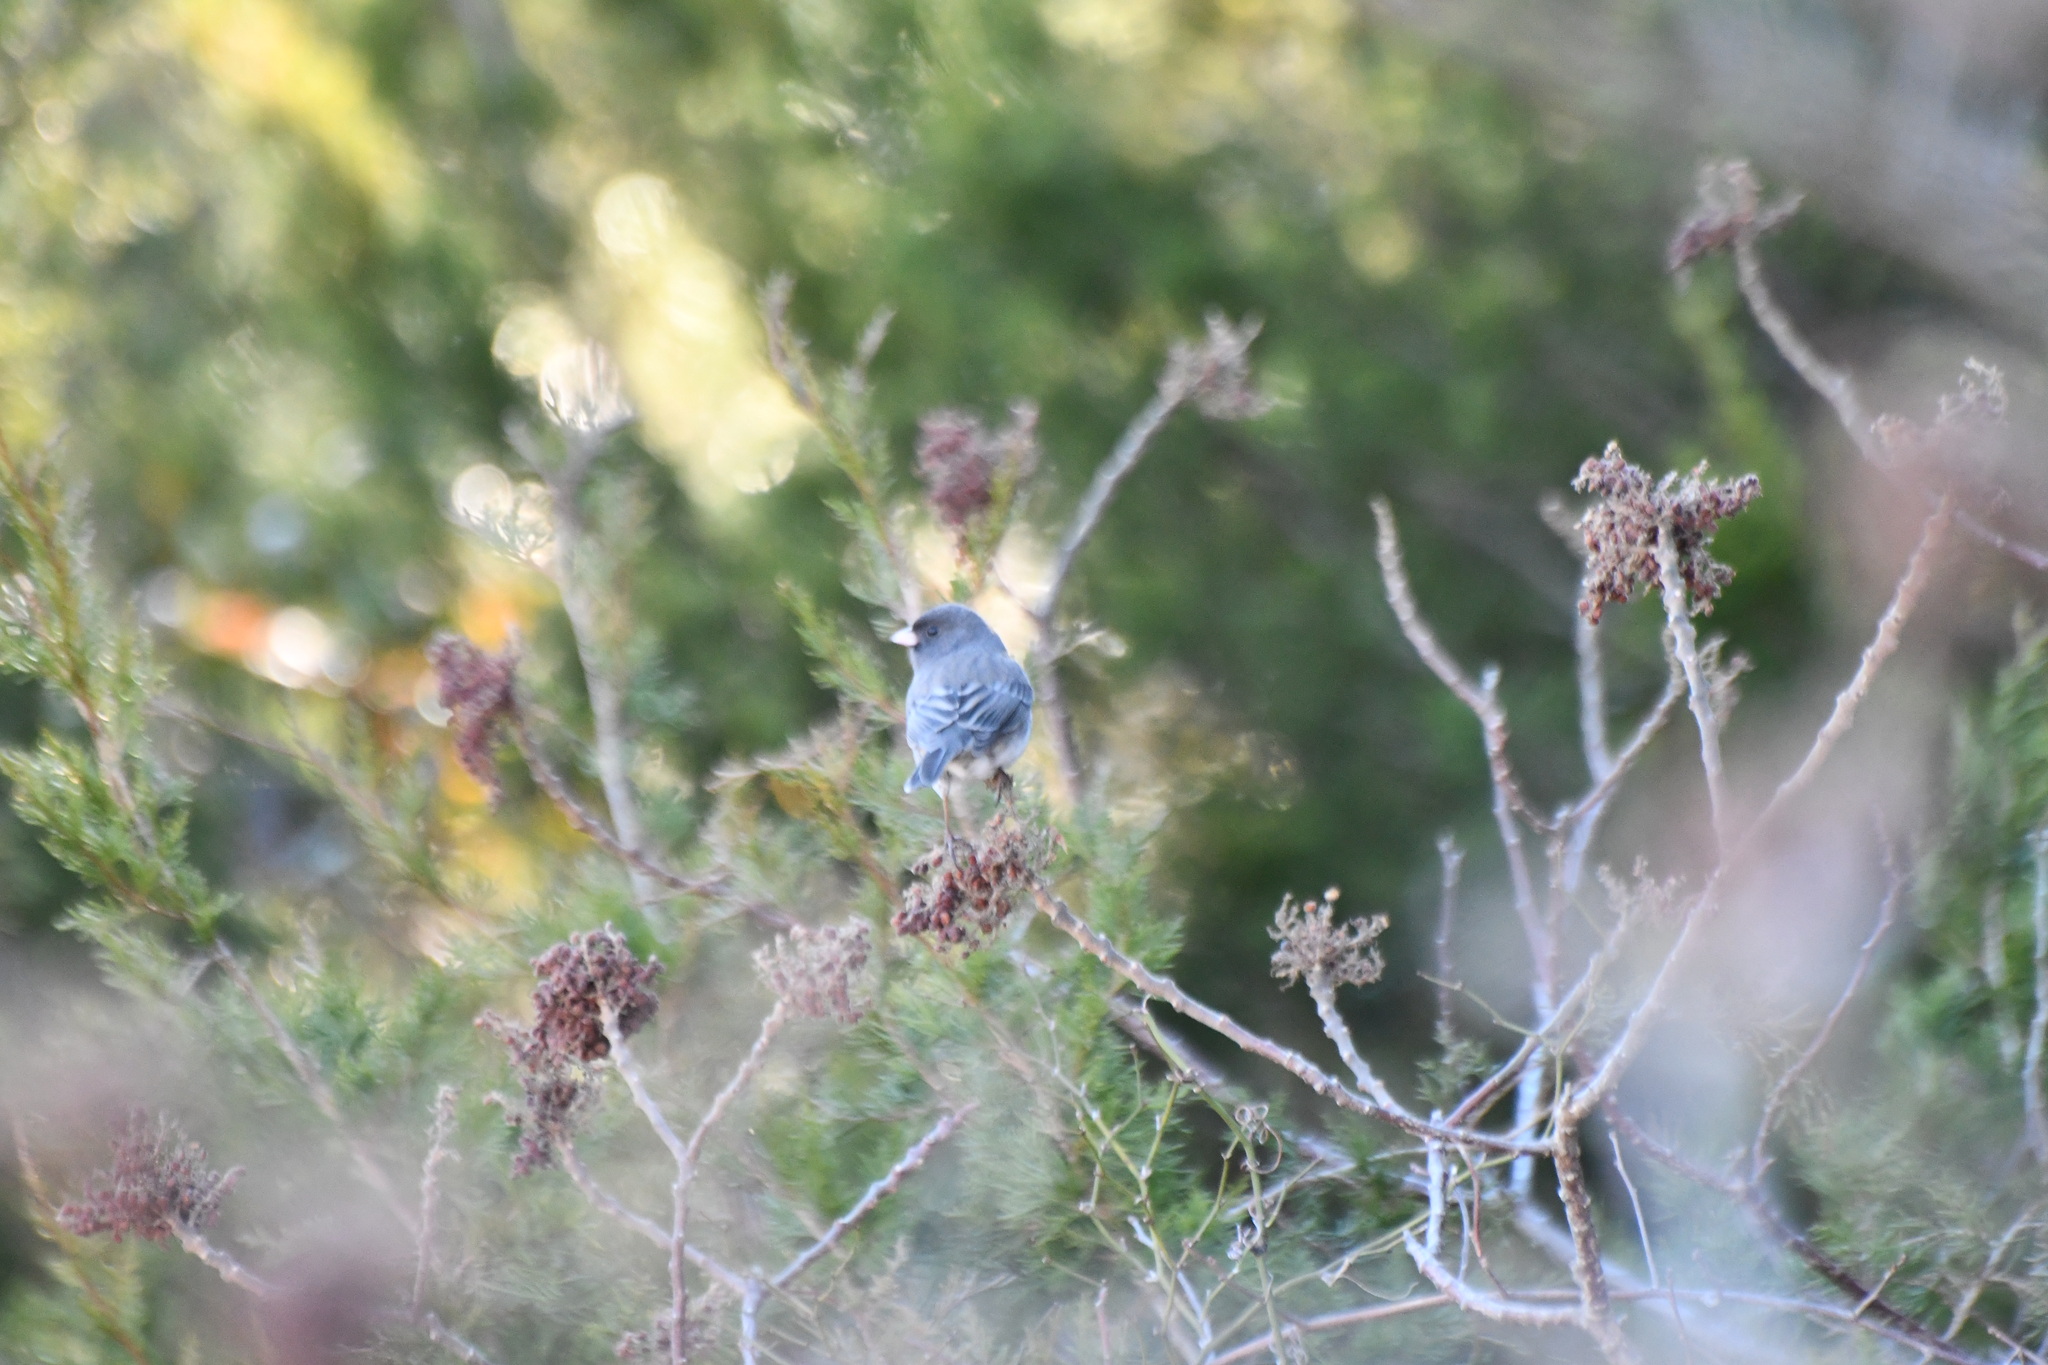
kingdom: Animalia
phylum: Chordata
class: Aves
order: Passeriformes
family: Passerellidae
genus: Junco
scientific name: Junco hyemalis
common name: Dark-eyed junco
